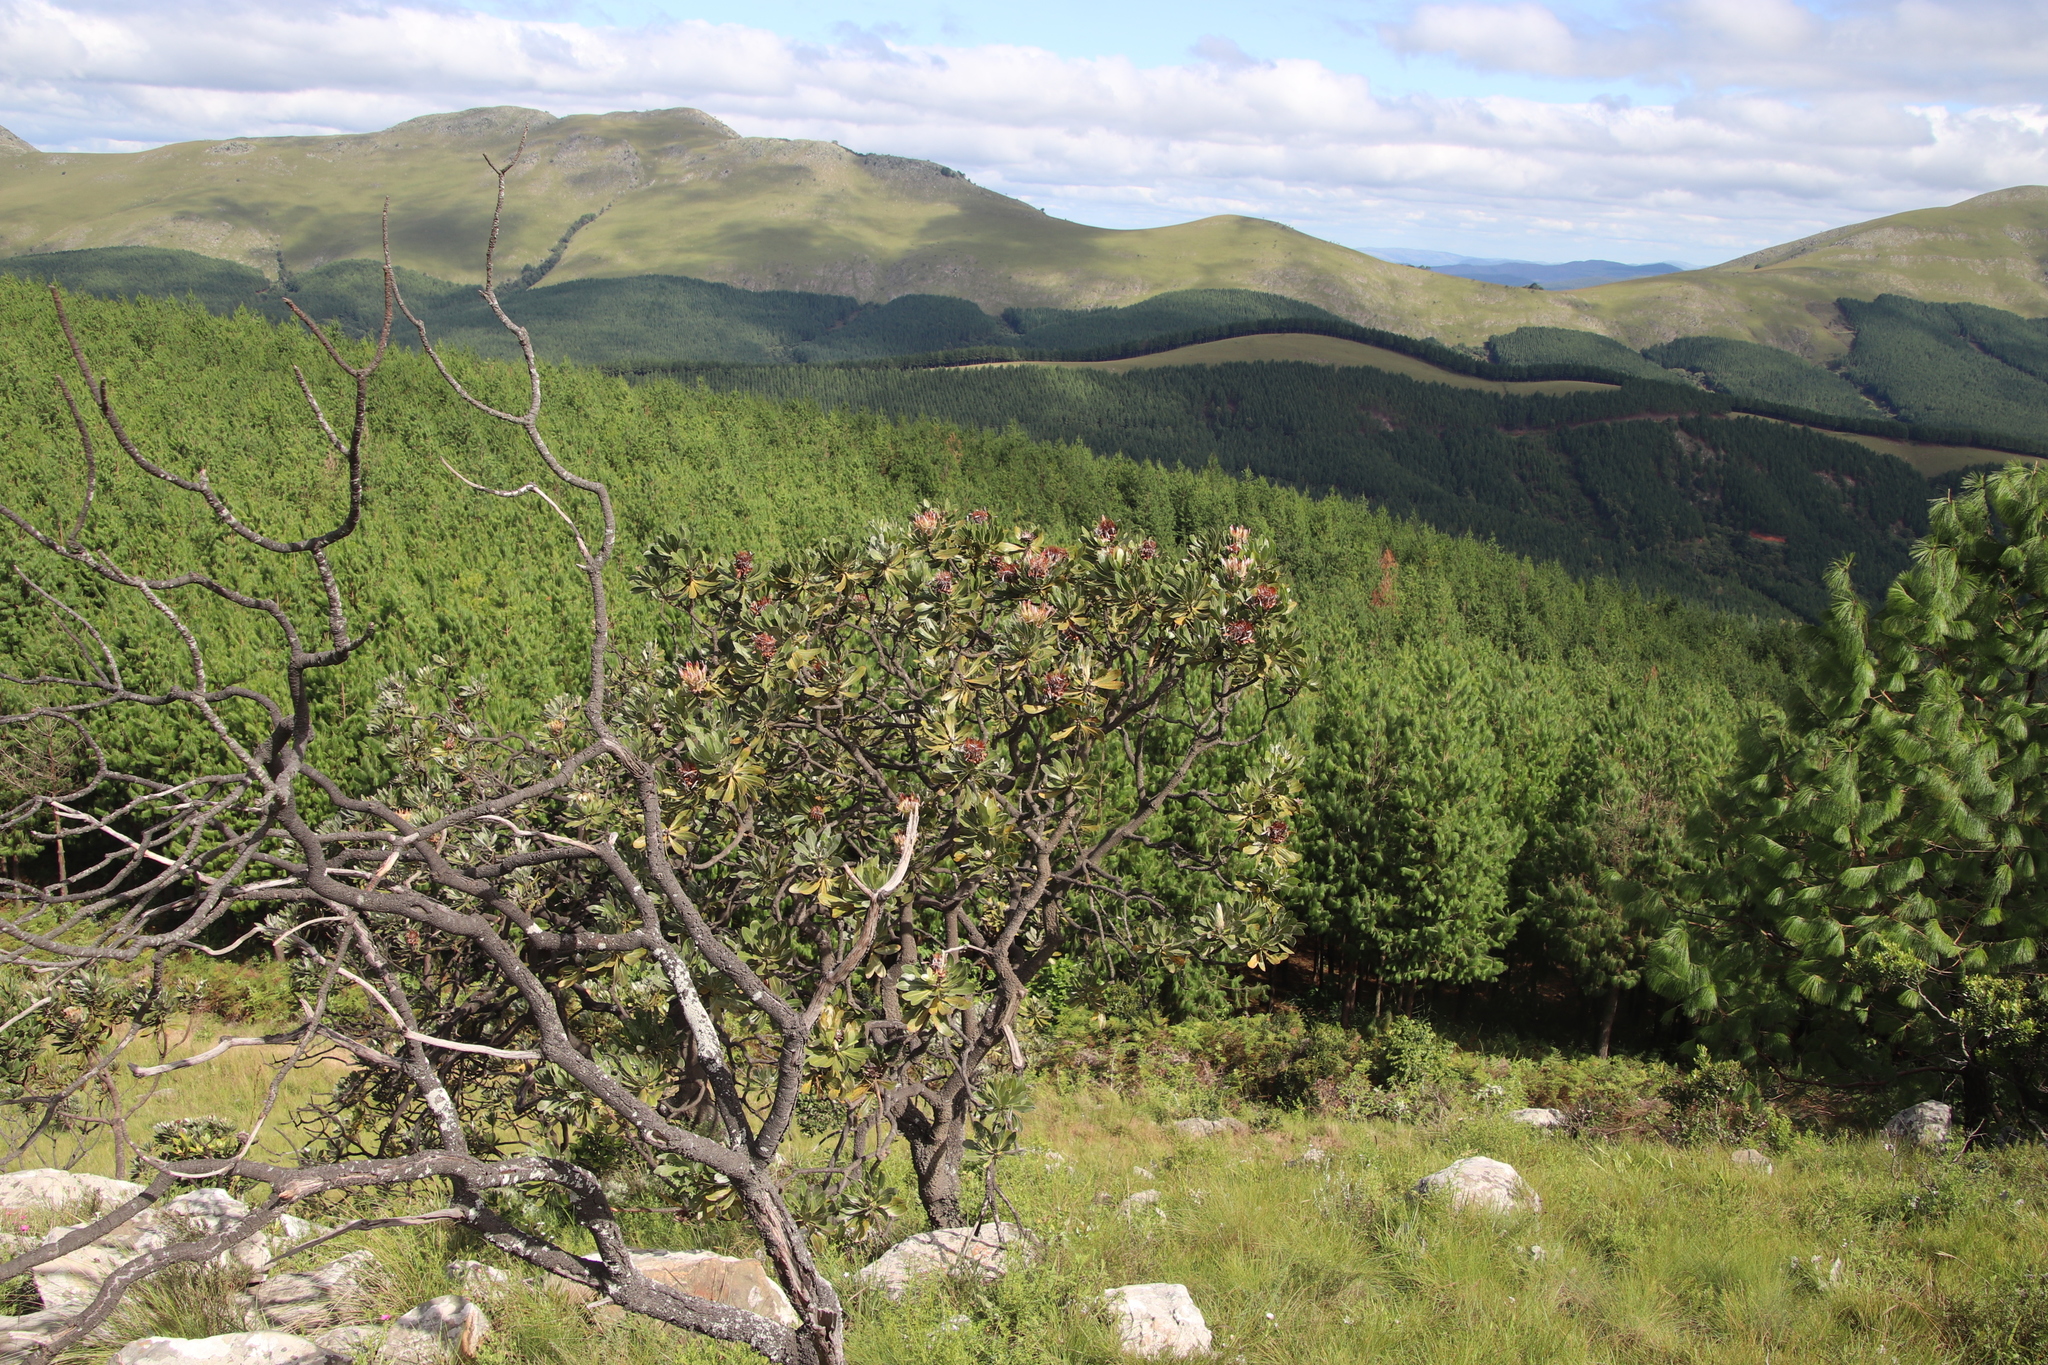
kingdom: Plantae
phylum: Tracheophyta
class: Magnoliopsida
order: Proteales
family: Proteaceae
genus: Protea
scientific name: Protea roupelliae
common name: Silver sugarbush
